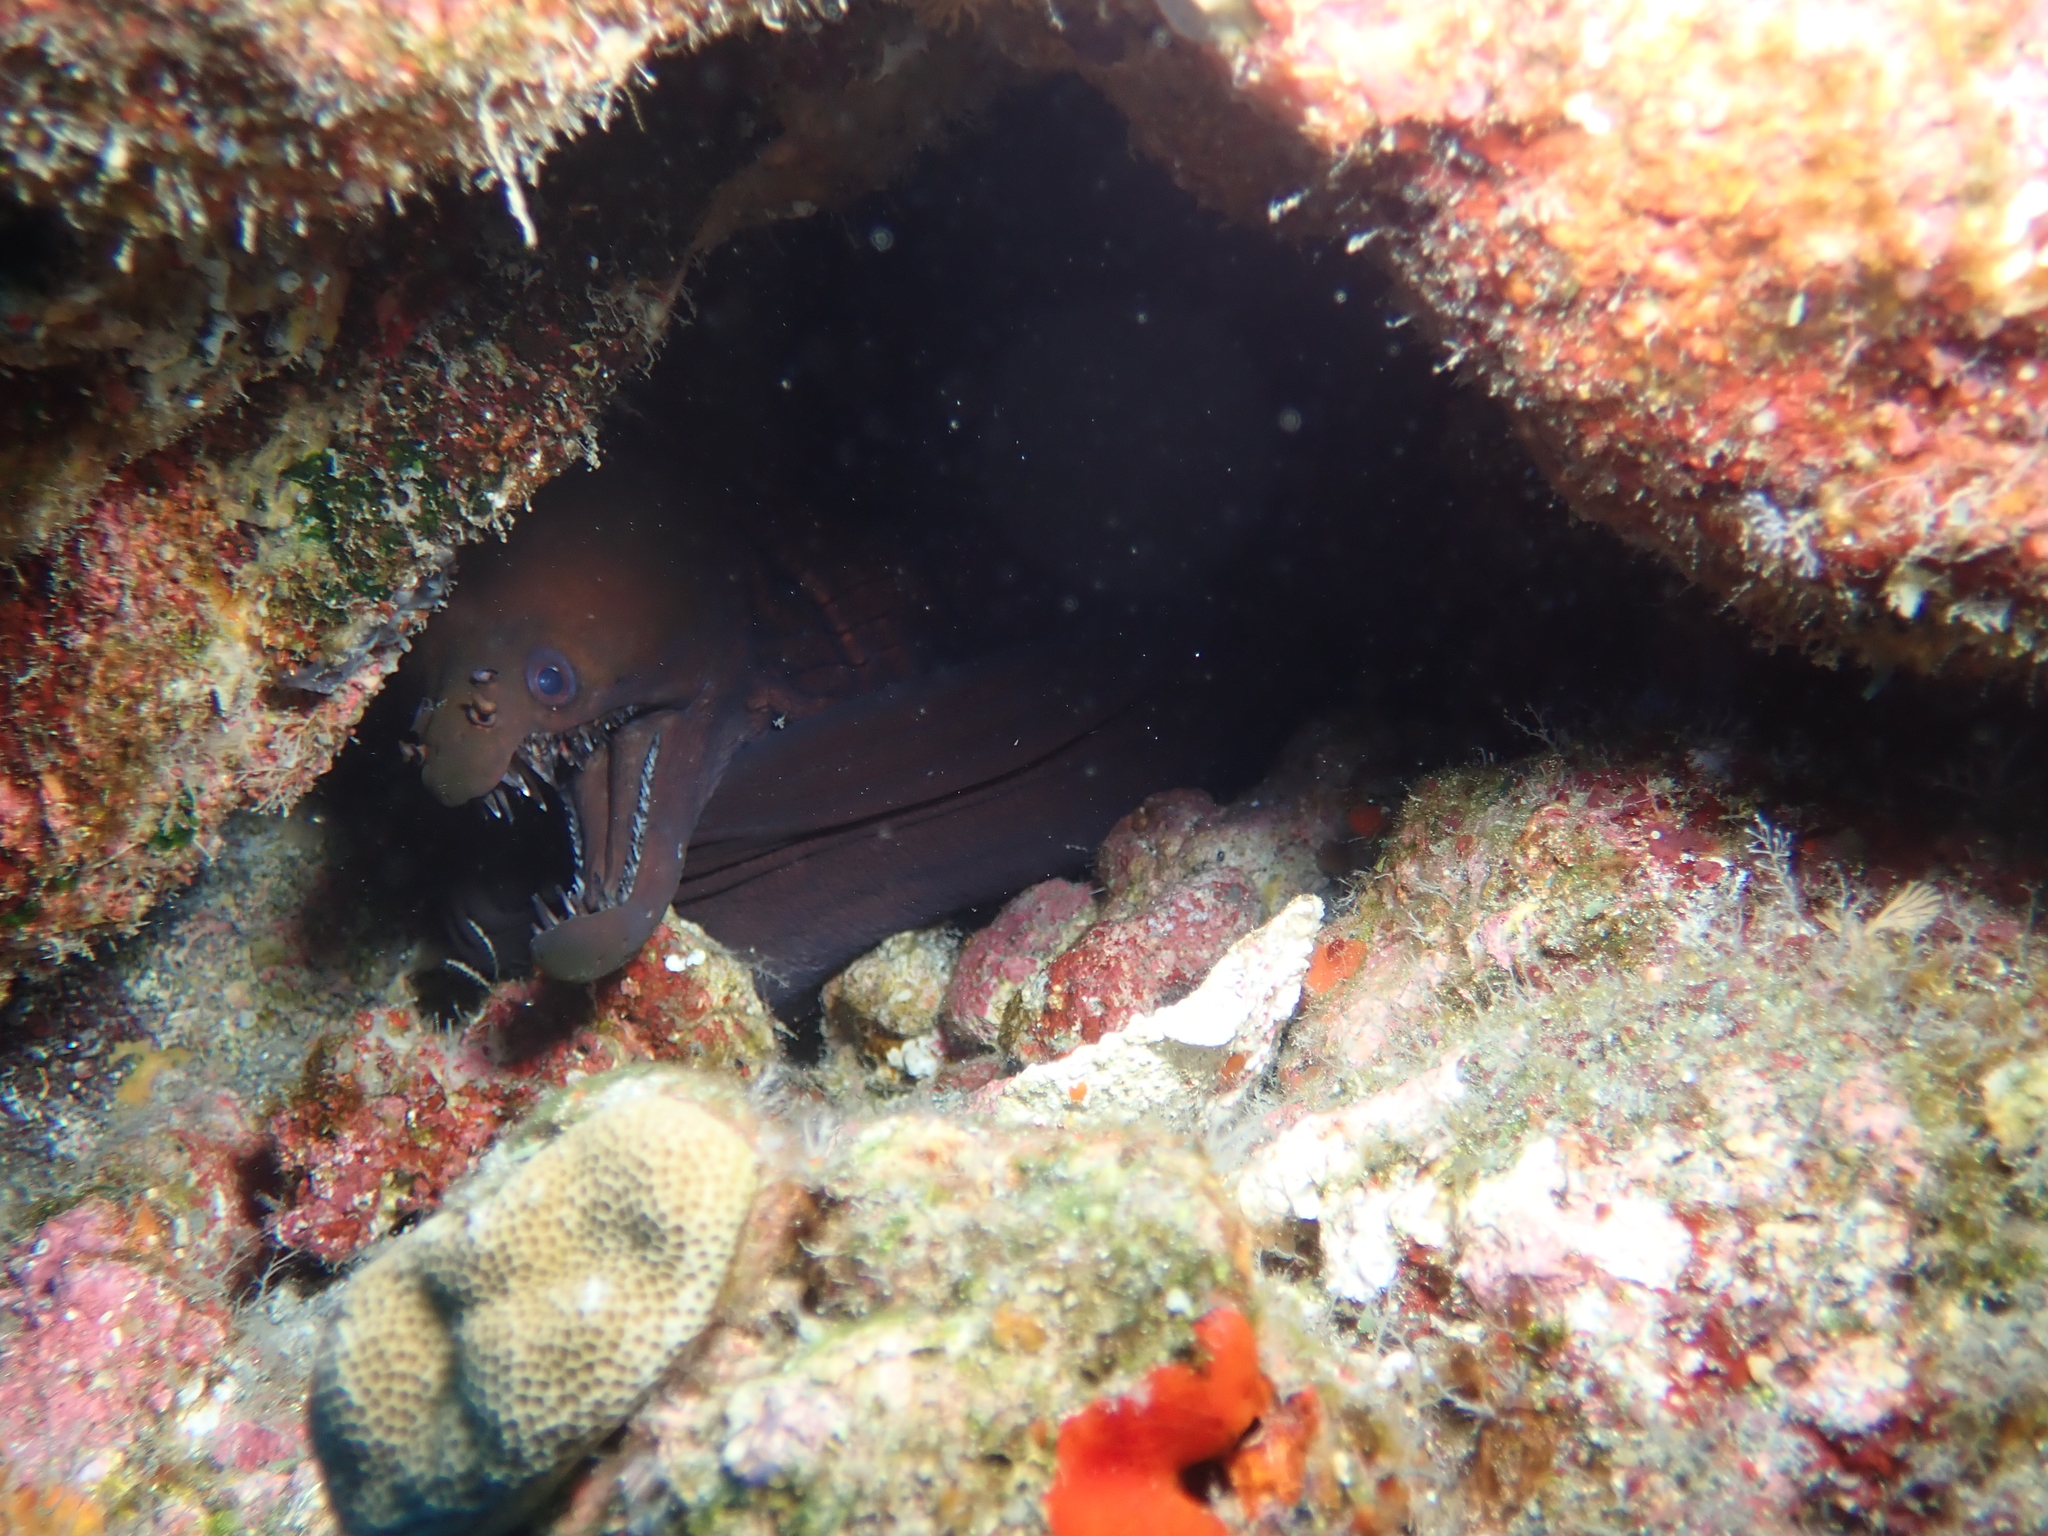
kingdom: Animalia
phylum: Chordata
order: Anguilliformes
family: Muraenidae
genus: Enchelynassa
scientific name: Enchelynassa canina
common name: Viper moray
